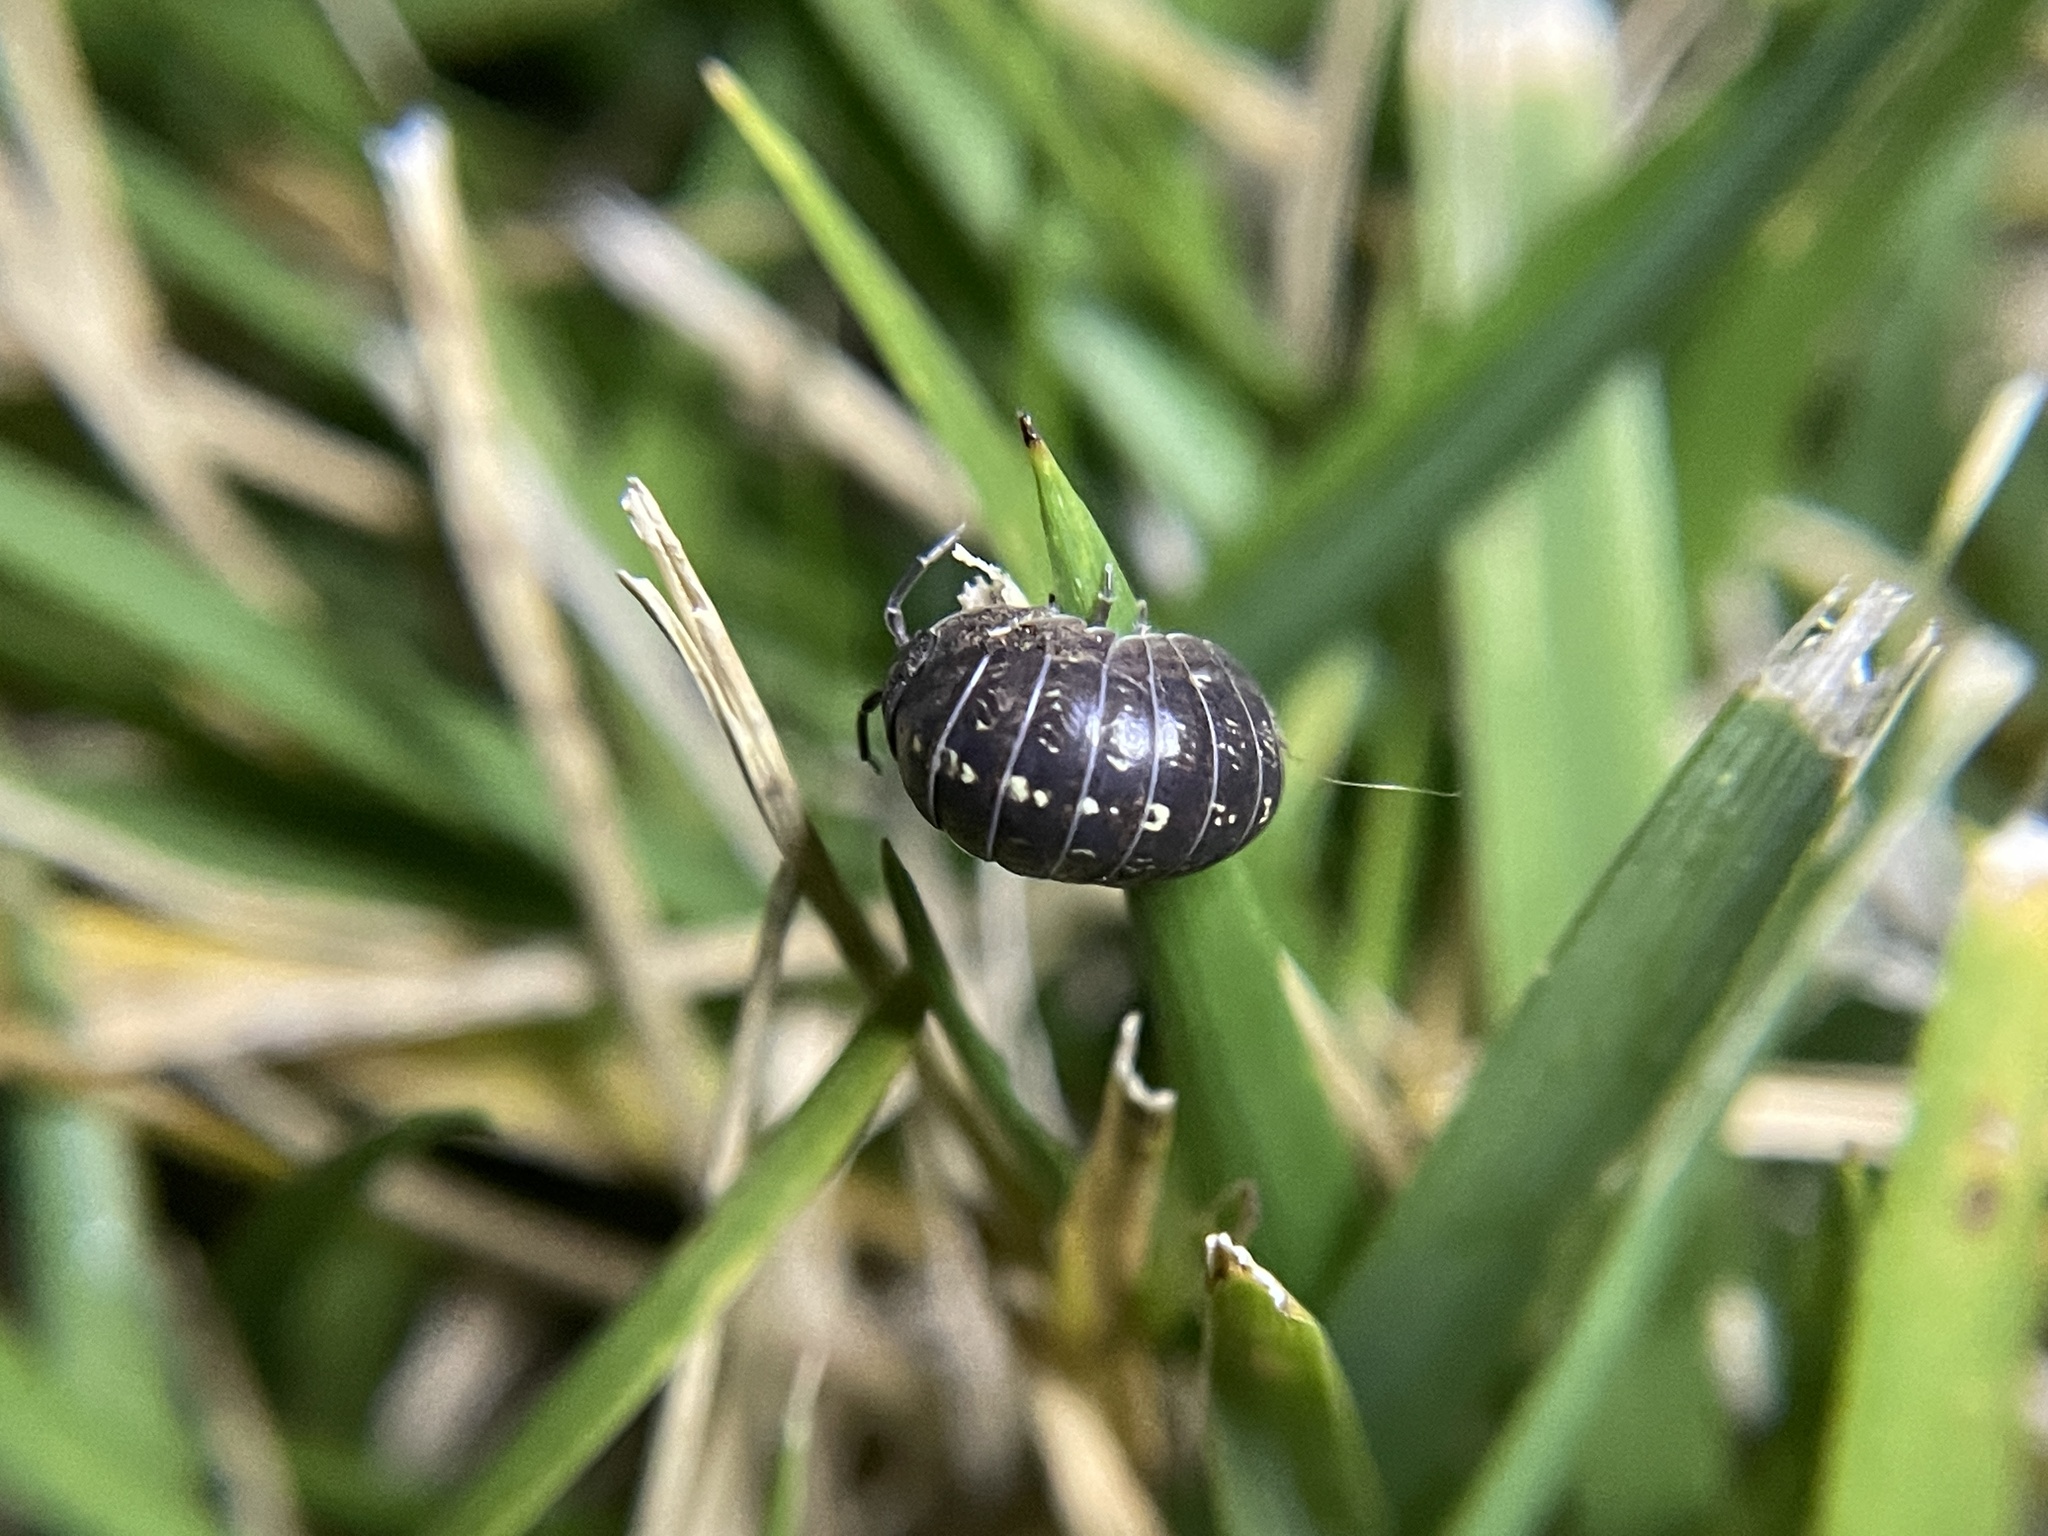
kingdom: Animalia
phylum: Arthropoda
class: Malacostraca
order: Isopoda
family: Armadillidiidae
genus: Armadillidium
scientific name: Armadillidium vulgare
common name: Common pill woodlouse
